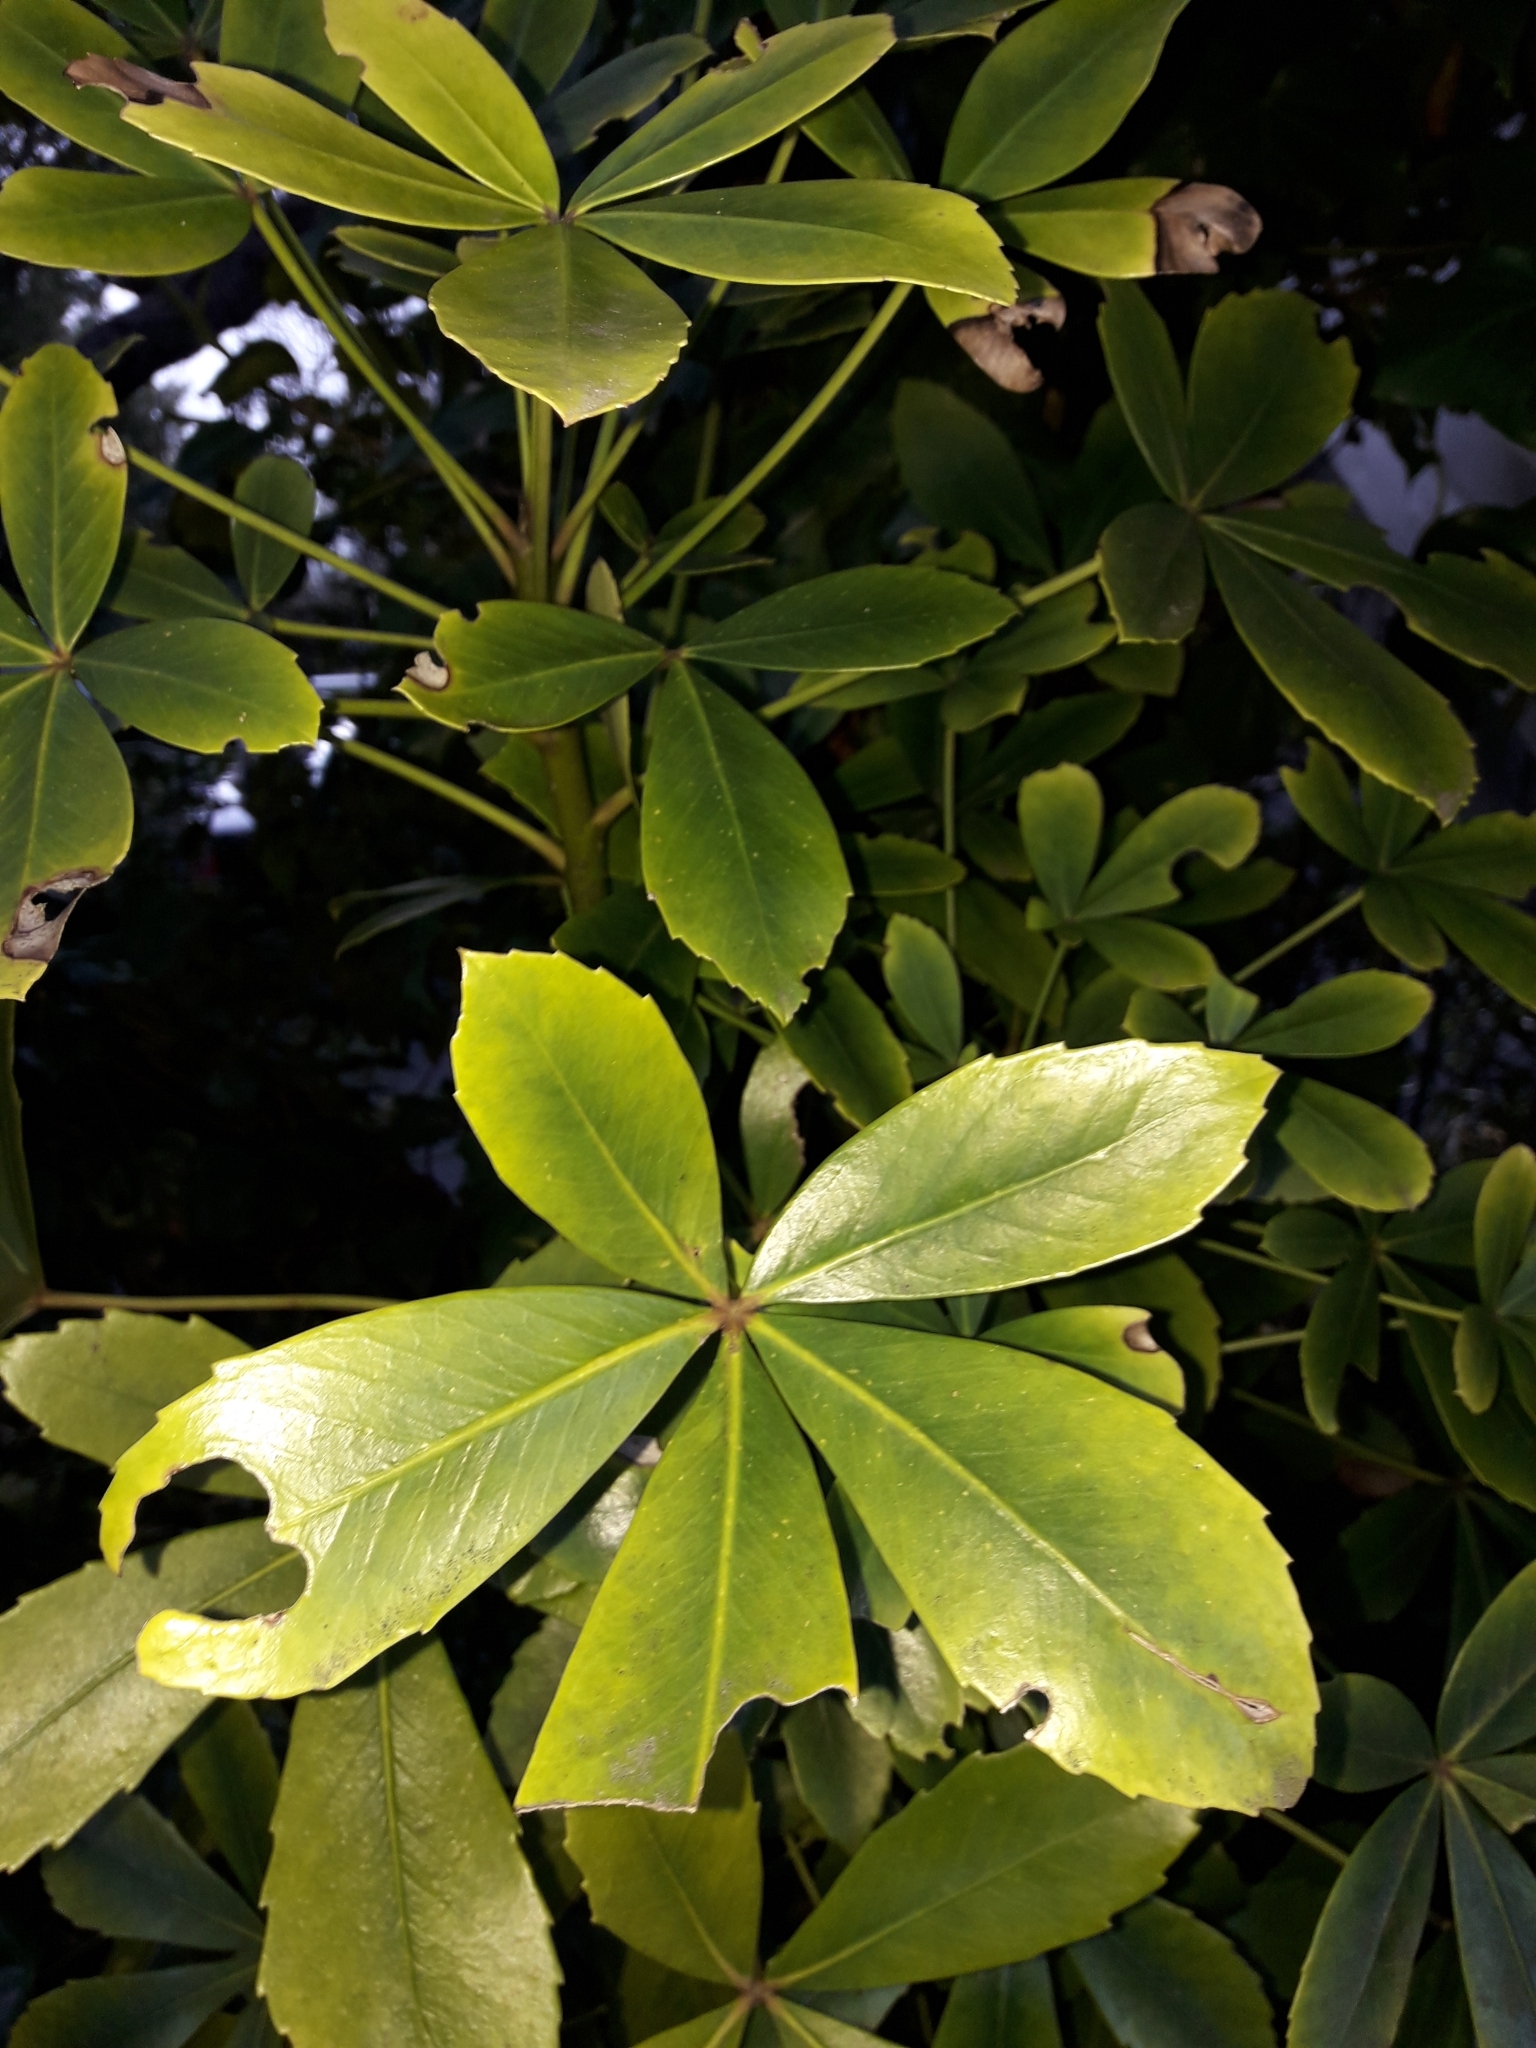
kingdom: Plantae
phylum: Tracheophyta
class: Magnoliopsida
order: Apiales
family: Araliaceae
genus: Pseudopanax
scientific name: Pseudopanax lessonii
